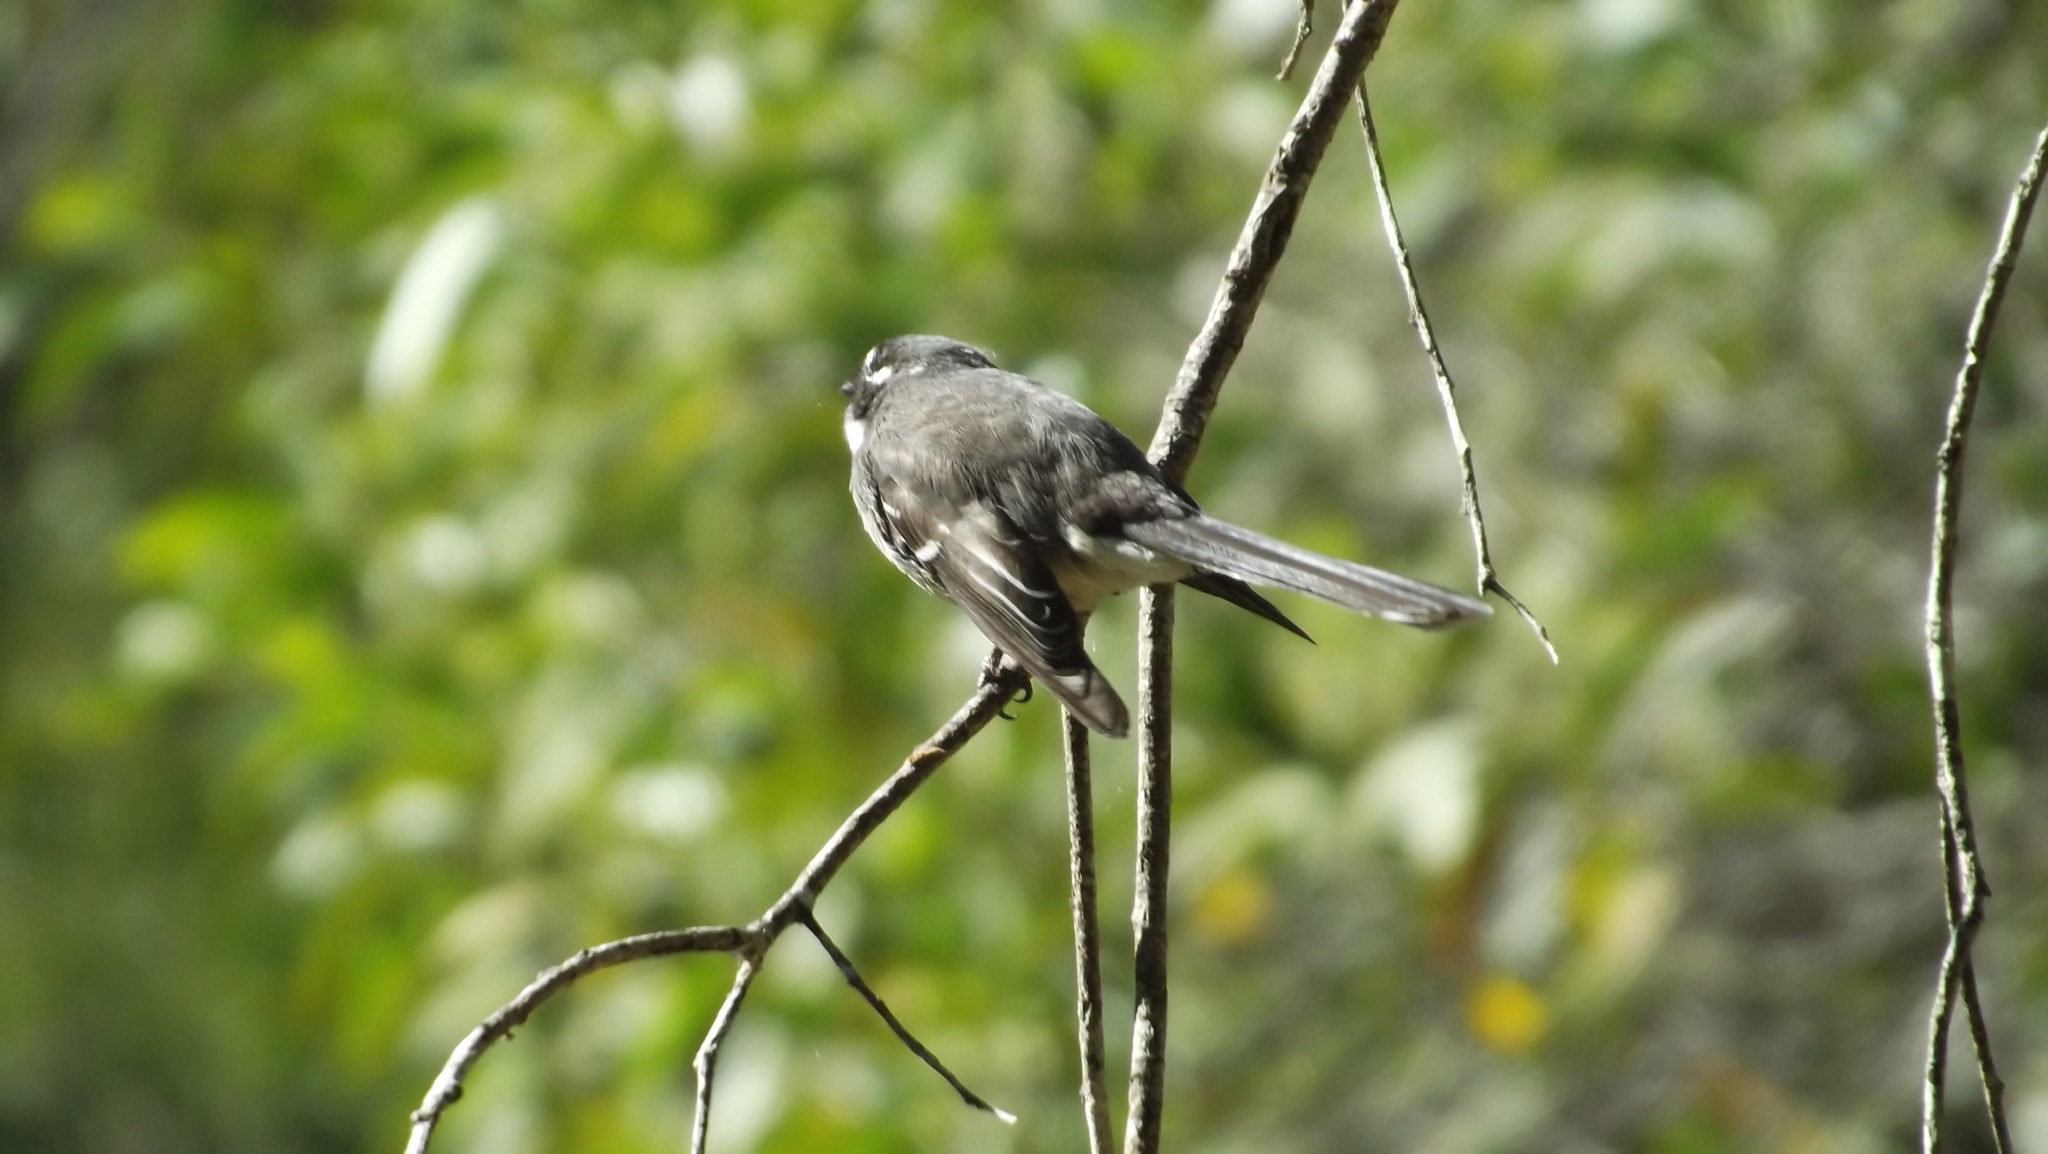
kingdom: Animalia
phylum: Chordata
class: Aves
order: Passeriformes
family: Rhipiduridae
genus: Rhipidura
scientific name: Rhipidura albiscapa
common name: Grey fantail
